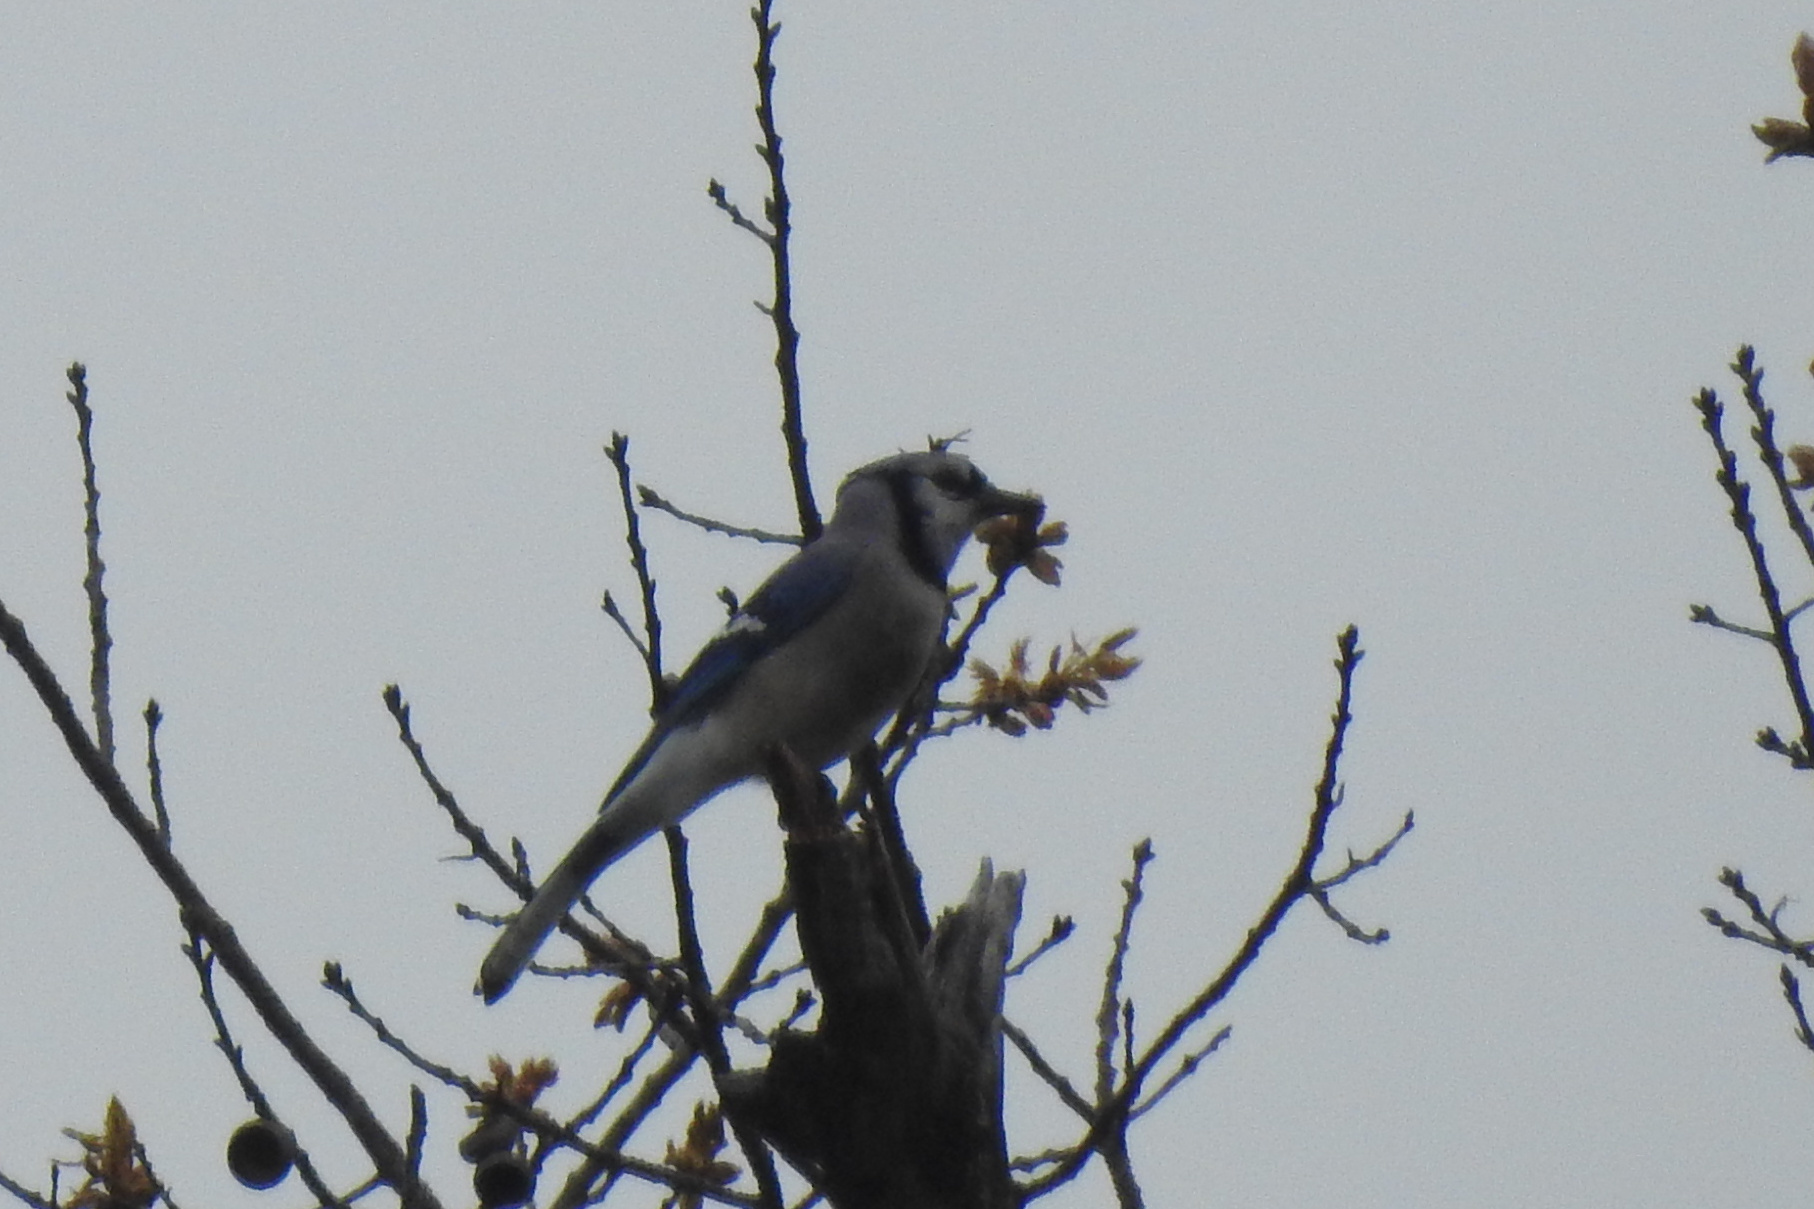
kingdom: Animalia
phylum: Chordata
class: Aves
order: Passeriformes
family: Corvidae
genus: Cyanocitta
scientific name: Cyanocitta cristata
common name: Blue jay
